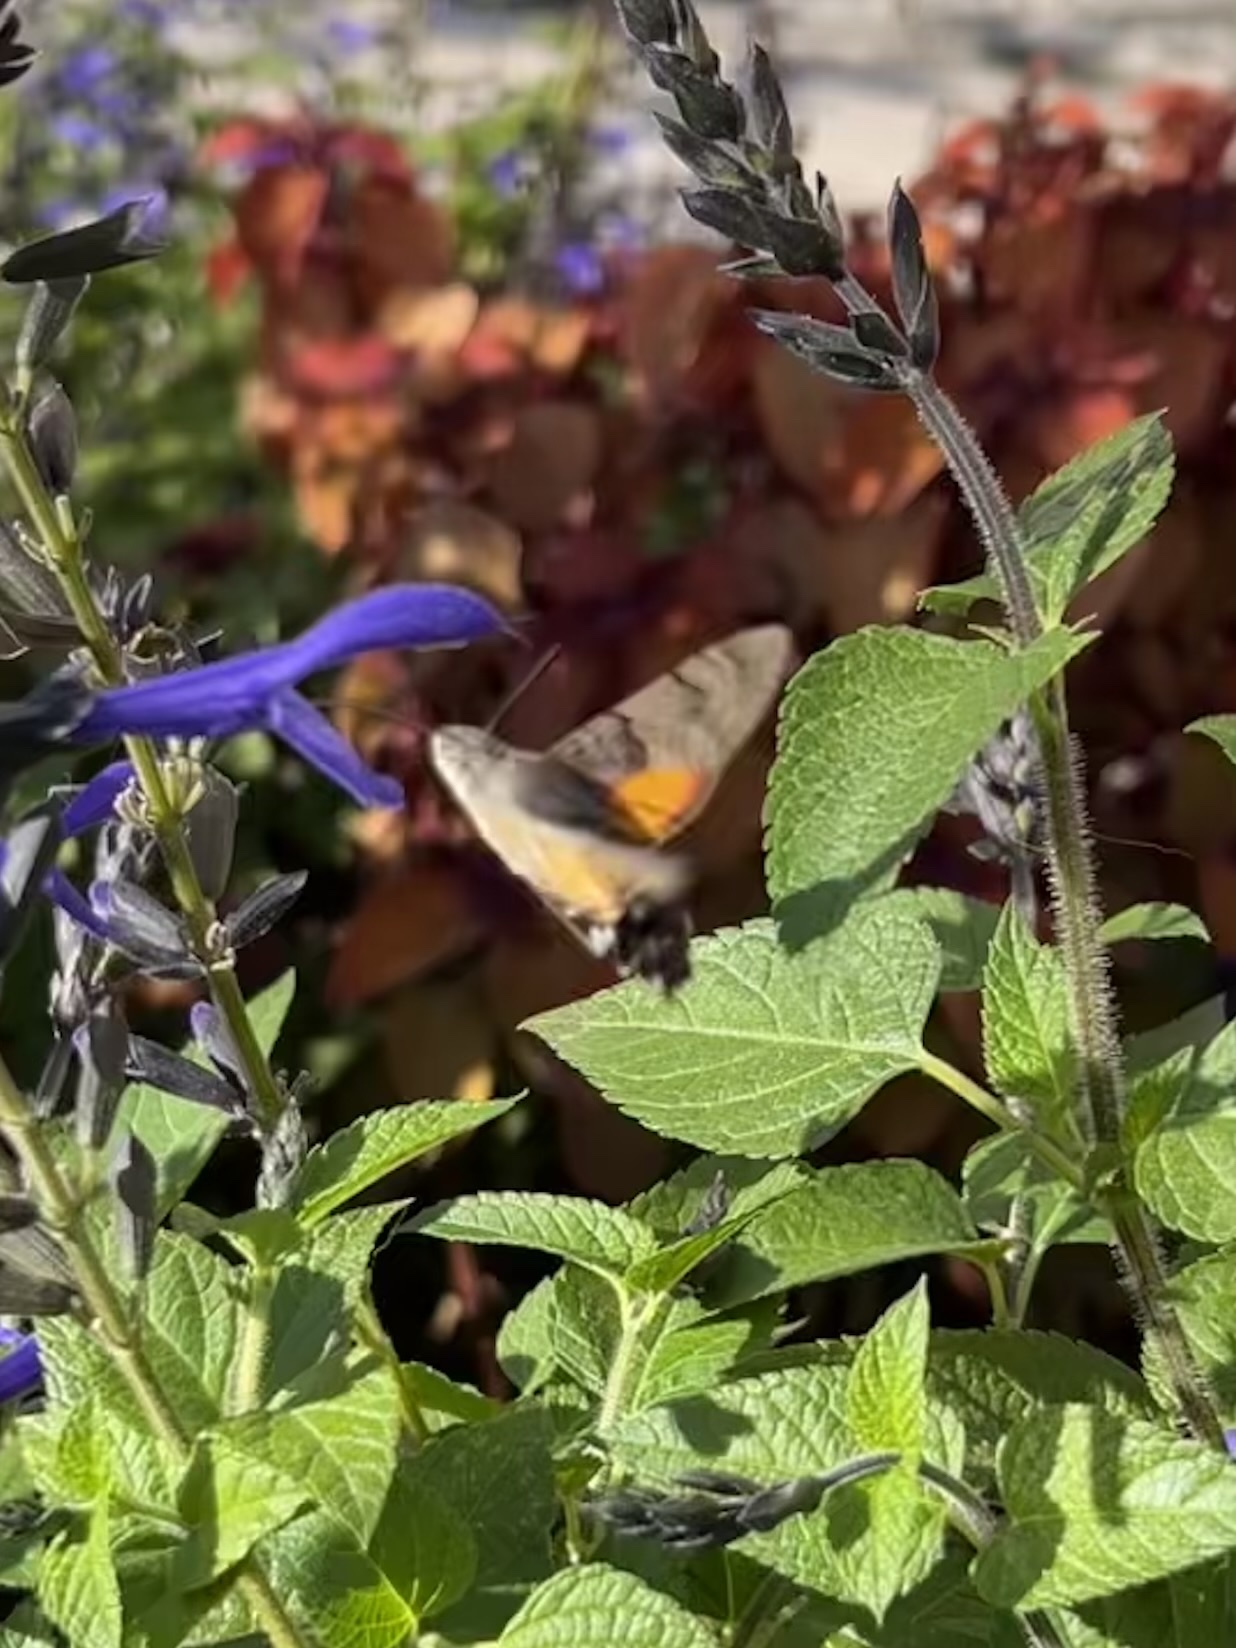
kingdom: Animalia
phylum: Arthropoda
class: Insecta
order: Lepidoptera
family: Sphingidae
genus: Macroglossum
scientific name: Macroglossum stellatarum
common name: Humming-bird hawk-moth
